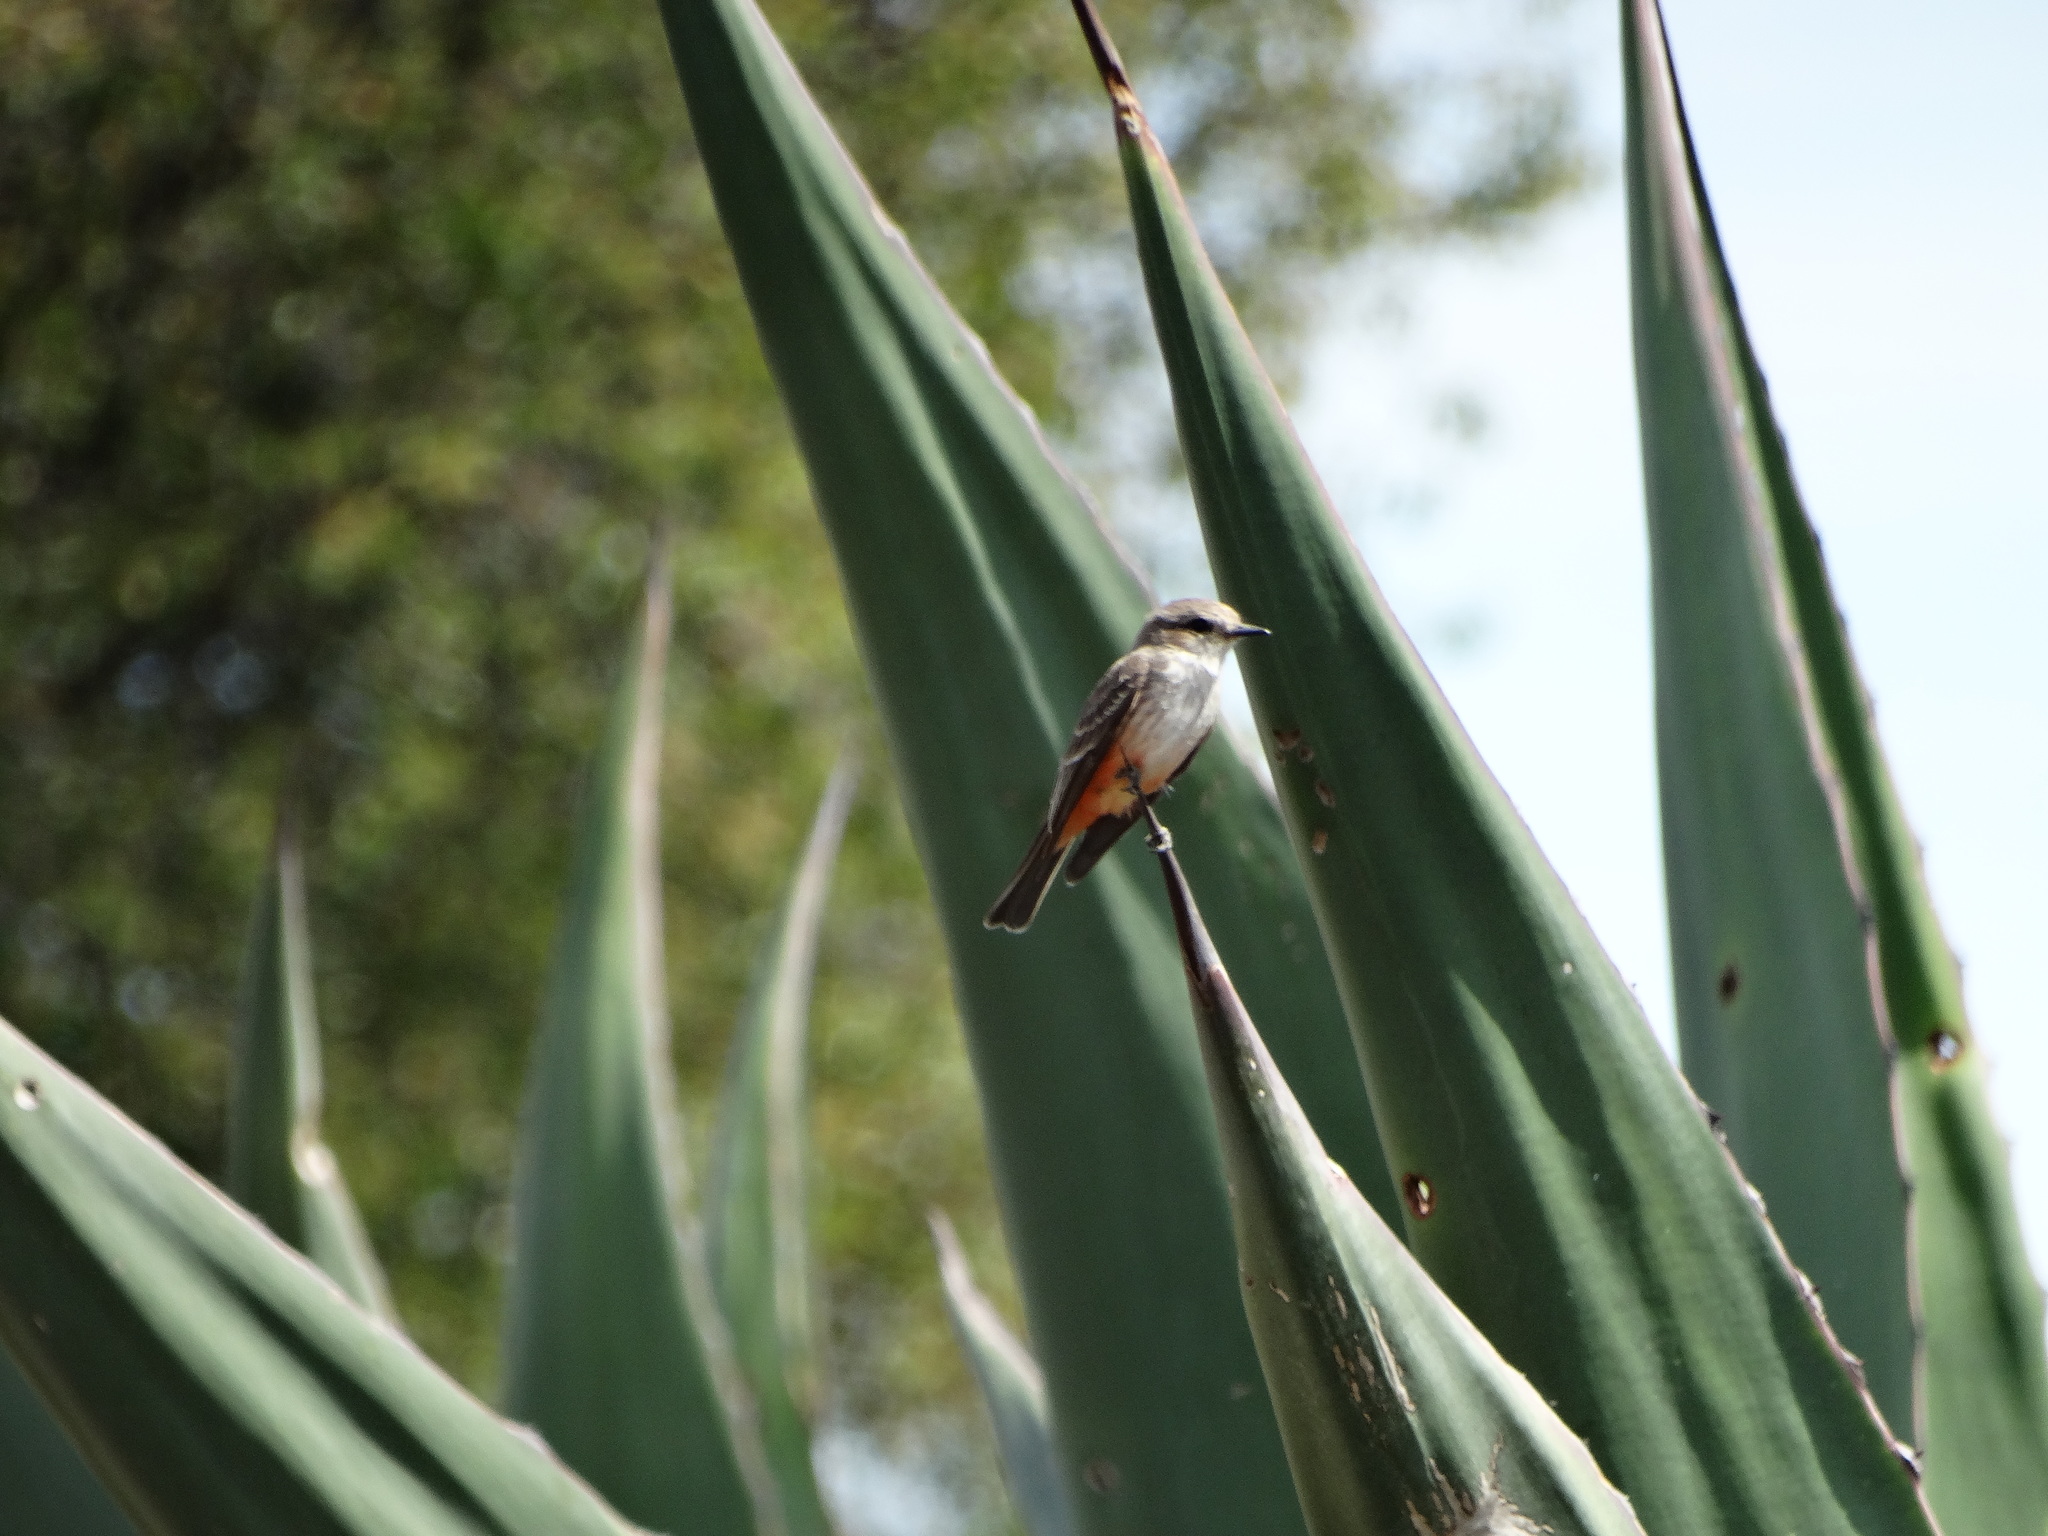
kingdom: Animalia
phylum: Chordata
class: Aves
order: Passeriformes
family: Tyrannidae
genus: Pyrocephalus
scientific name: Pyrocephalus rubinus
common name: Vermilion flycatcher
